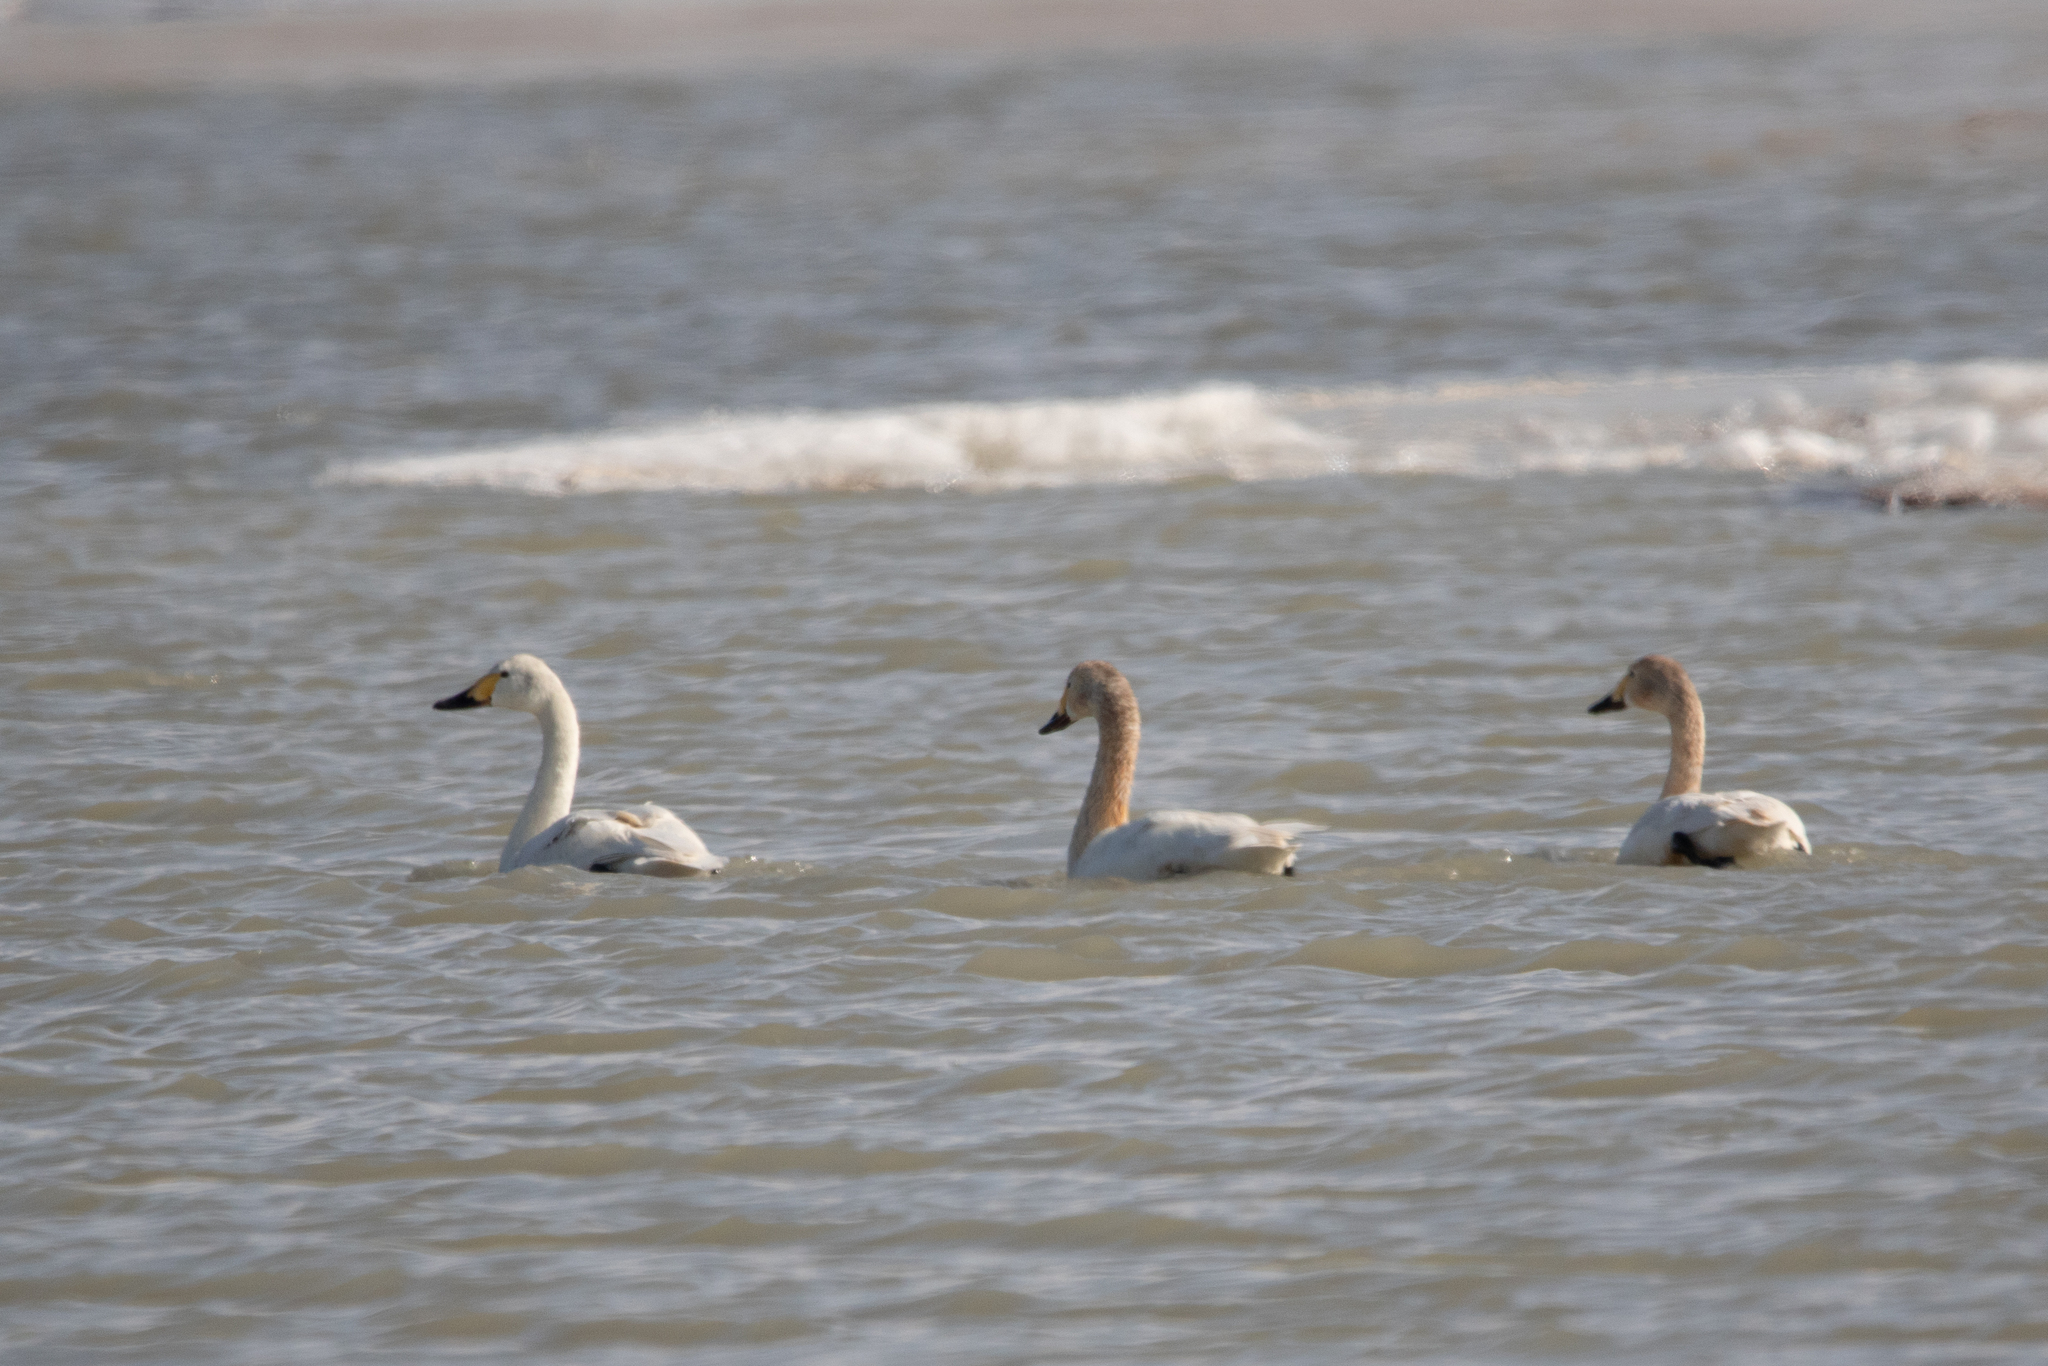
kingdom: Animalia
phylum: Chordata
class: Aves
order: Anseriformes
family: Anatidae
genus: Cygnus
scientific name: Cygnus cygnus
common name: Whooper swan
